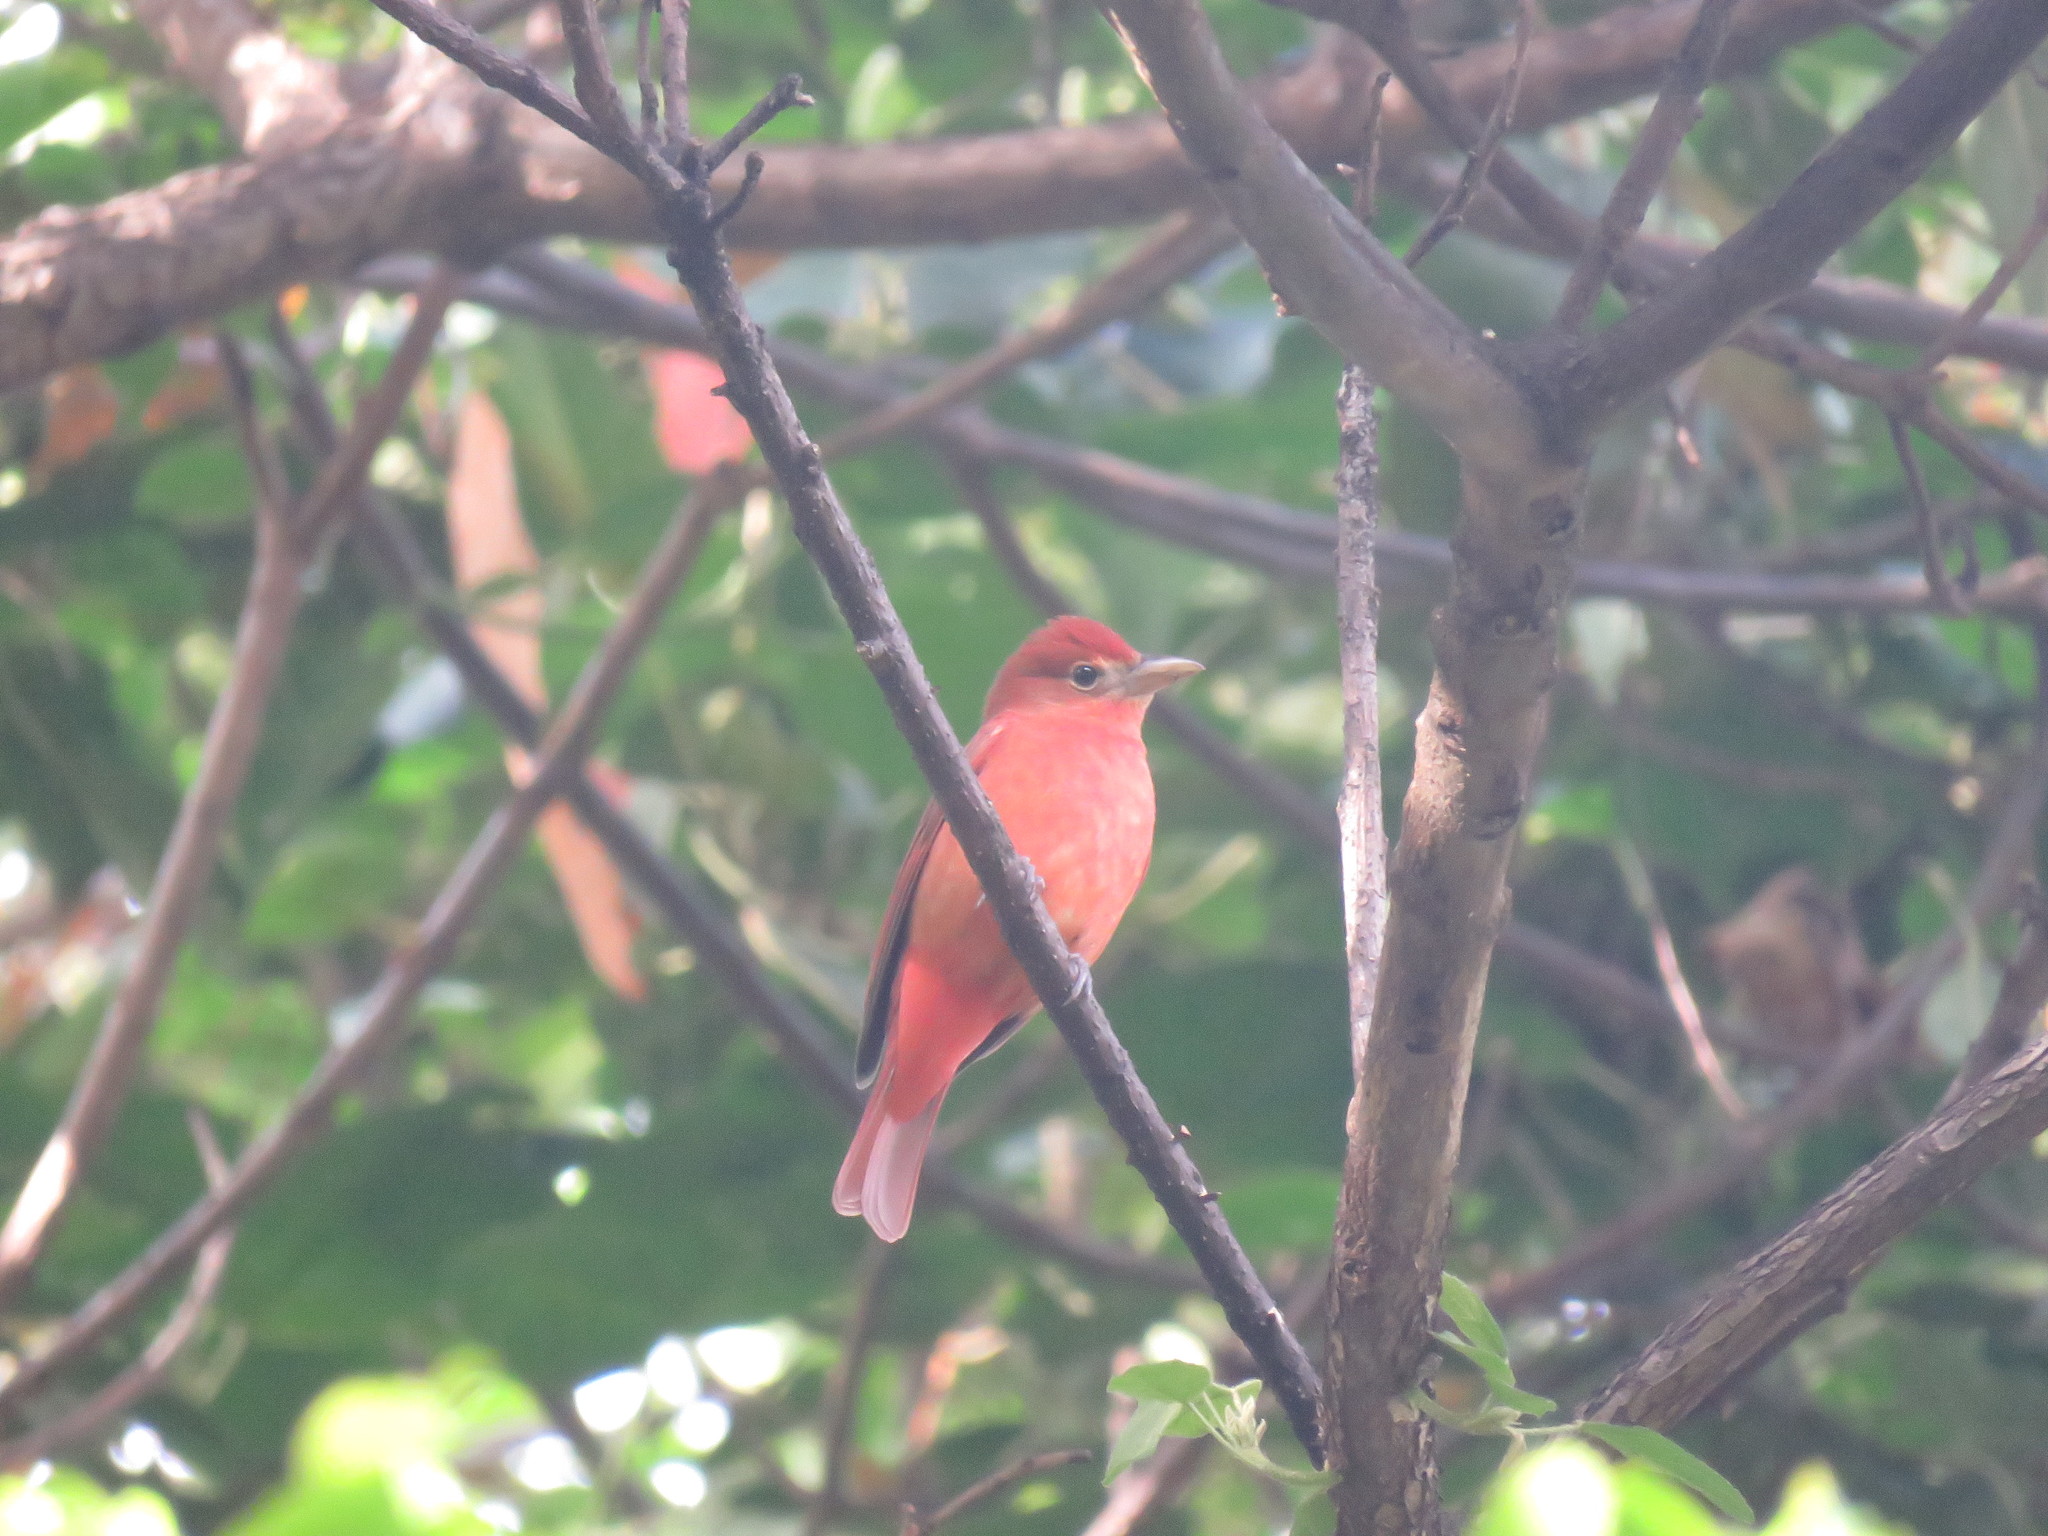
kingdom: Animalia
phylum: Chordata
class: Aves
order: Passeriformes
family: Cardinalidae
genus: Piranga
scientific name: Piranga rubra
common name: Summer tanager
